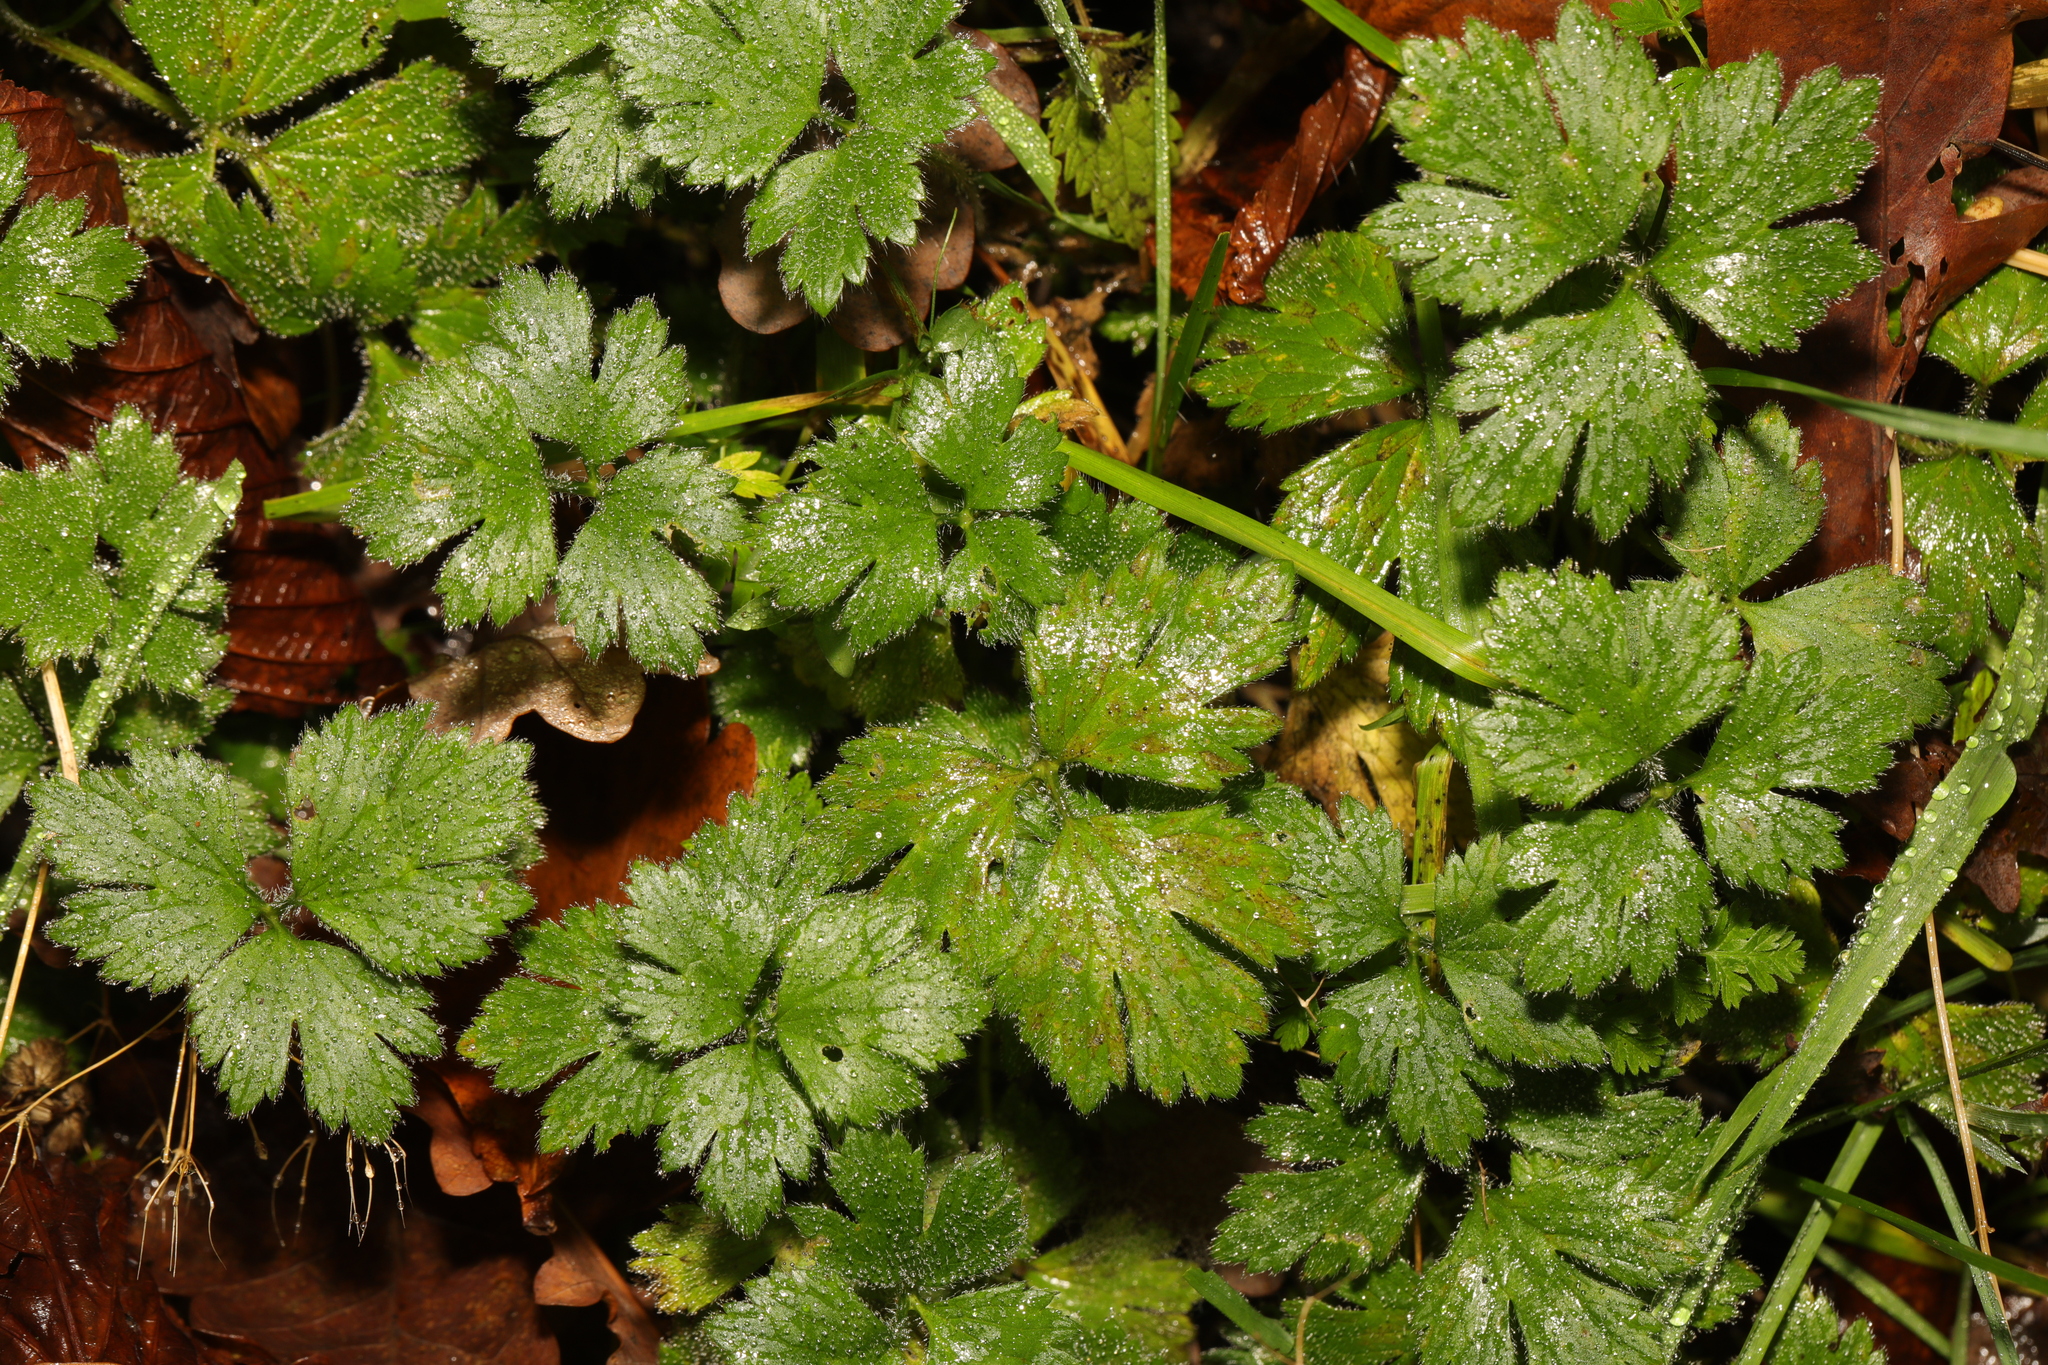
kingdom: Plantae
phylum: Tracheophyta
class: Magnoliopsida
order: Ranunculales
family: Ranunculaceae
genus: Ranunculus
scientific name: Ranunculus repens
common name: Creeping buttercup
